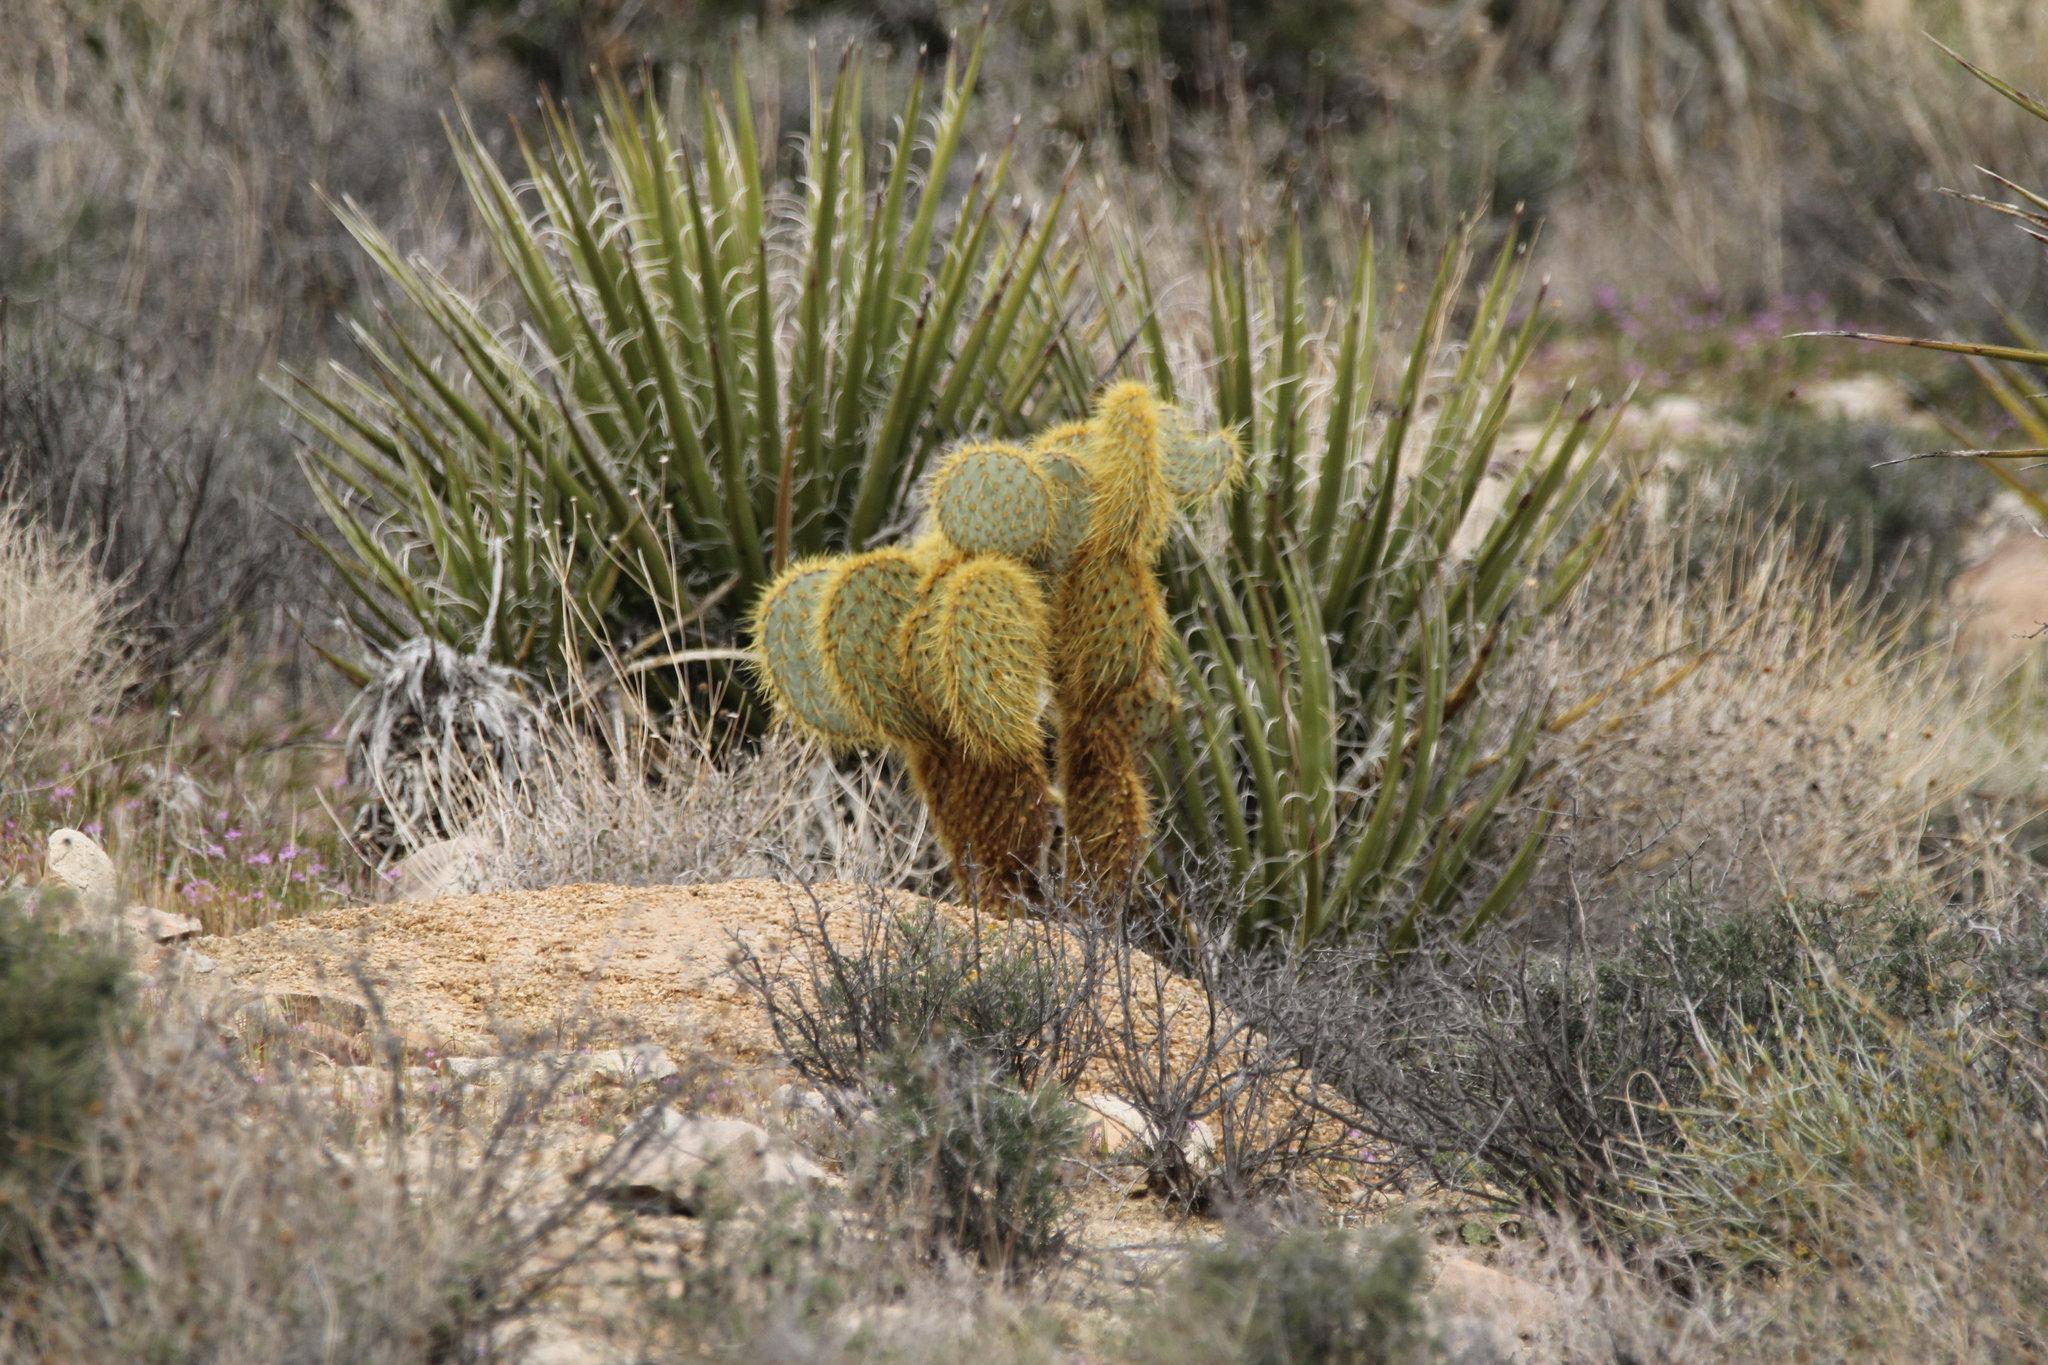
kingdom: Plantae
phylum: Tracheophyta
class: Magnoliopsida
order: Caryophyllales
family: Cactaceae
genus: Opuntia
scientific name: Opuntia chlorotica
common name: Dollar-joint prickly-pear
